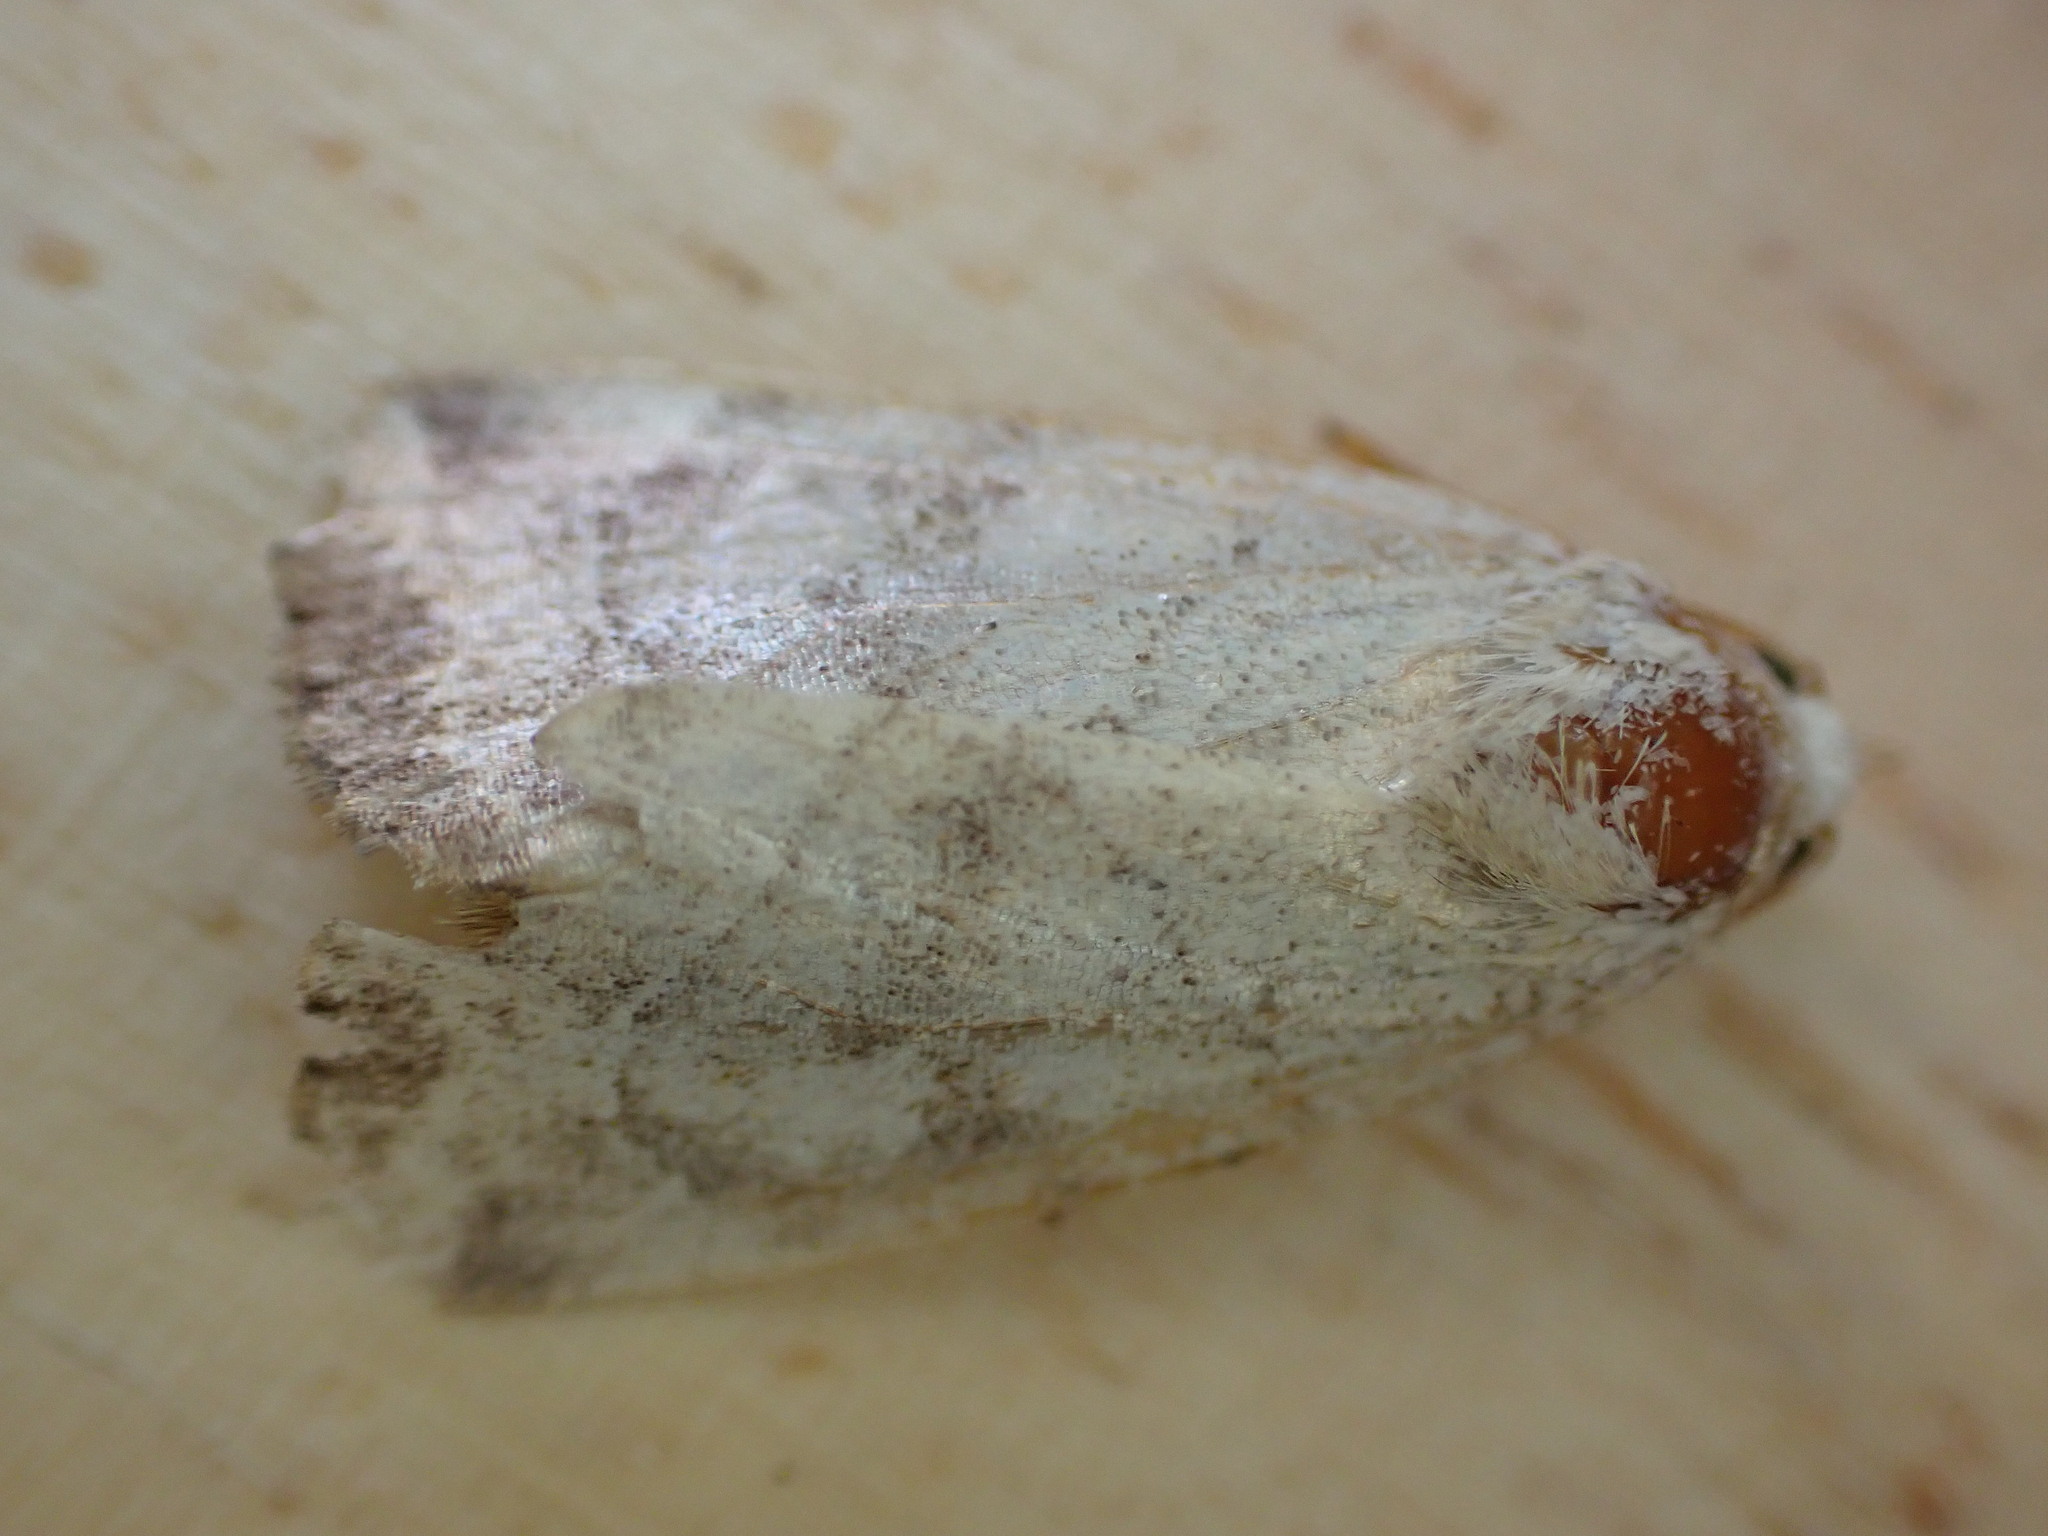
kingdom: Animalia
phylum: Arthropoda
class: Insecta
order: Lepidoptera
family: Noctuidae
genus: Cosmia
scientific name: Cosmia trapezina
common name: Dun-bar
